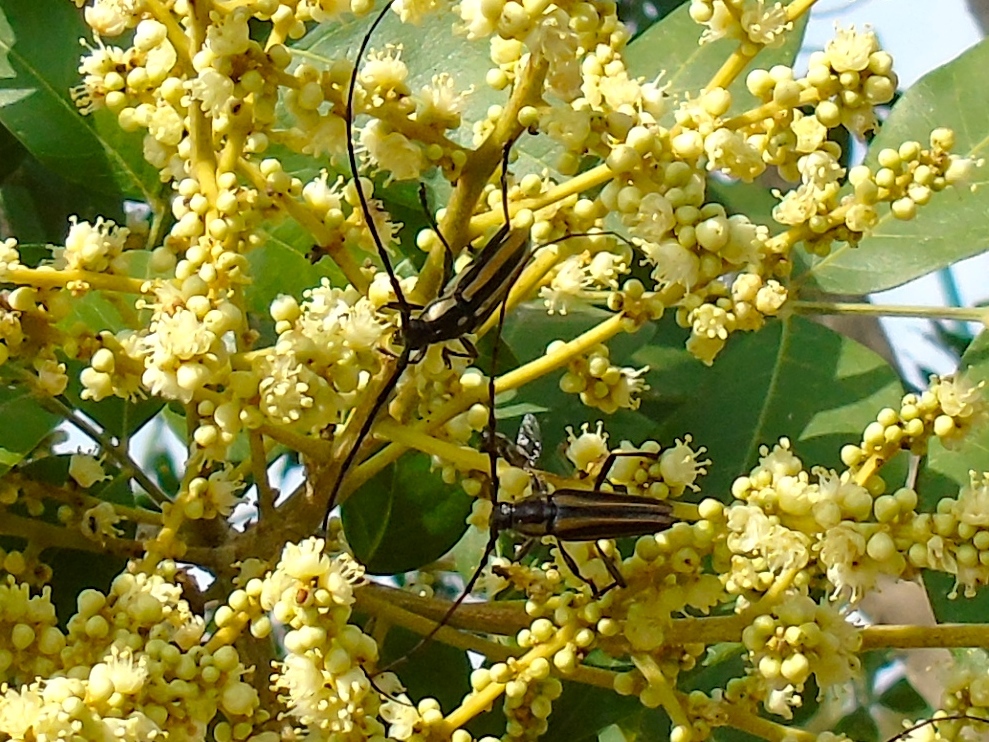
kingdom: Animalia
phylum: Arthropoda
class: Insecta
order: Coleoptera
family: Cerambycidae
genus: Sphaenothecus
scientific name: Sphaenothecus bilineatus
